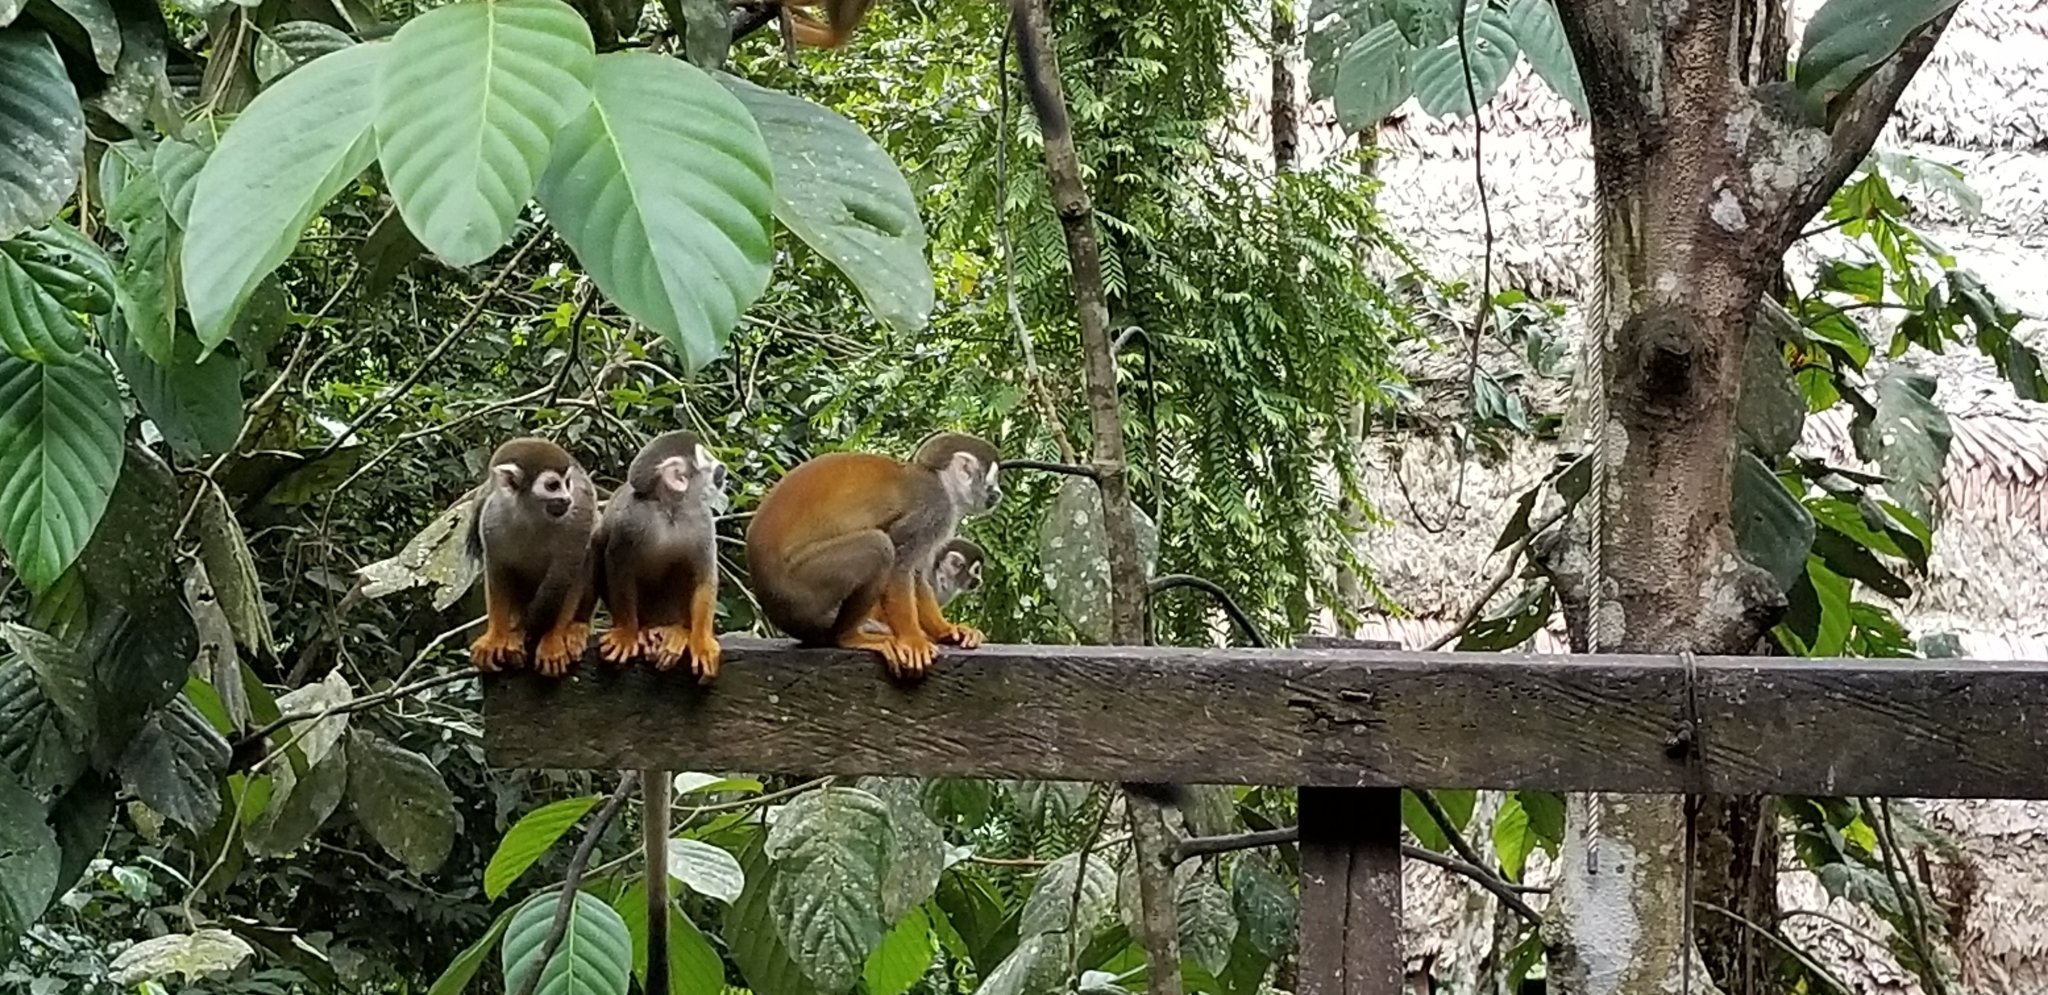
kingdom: Animalia
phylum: Chordata
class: Mammalia
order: Primates
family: Cebidae
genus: Saimiri
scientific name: Saimiri cassiquiarensis
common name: Humboldt’s squirrel monkey
